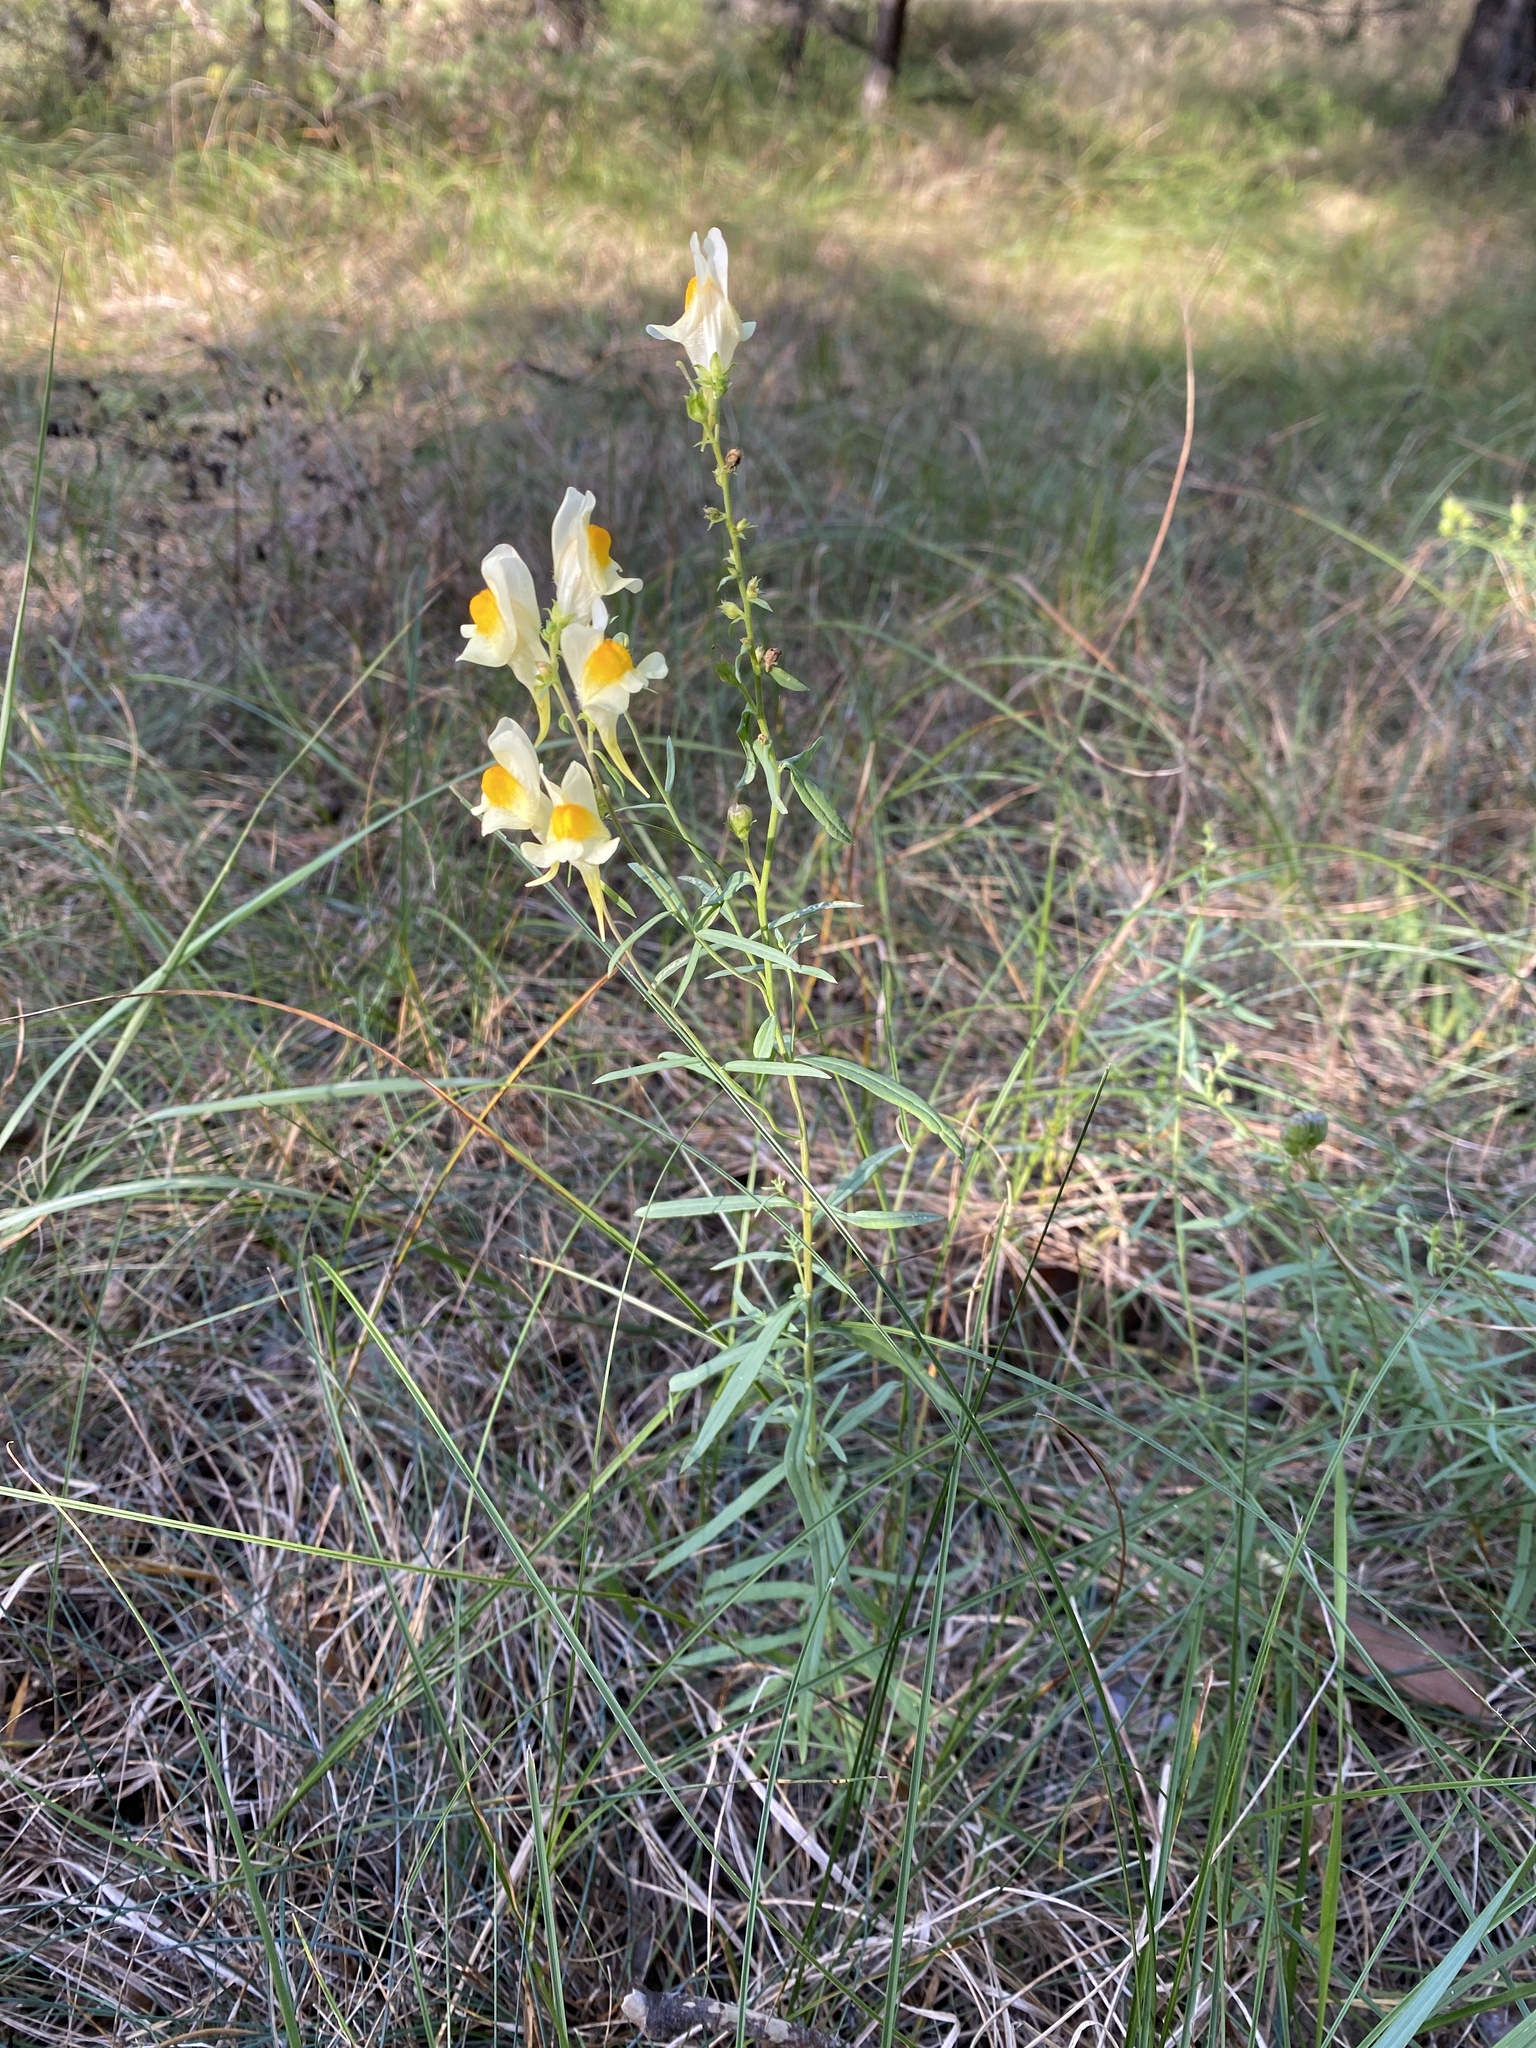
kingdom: Plantae
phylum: Tracheophyta
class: Magnoliopsida
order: Lamiales
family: Plantaginaceae
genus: Linaria
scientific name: Linaria vulgaris
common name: Butter and eggs
